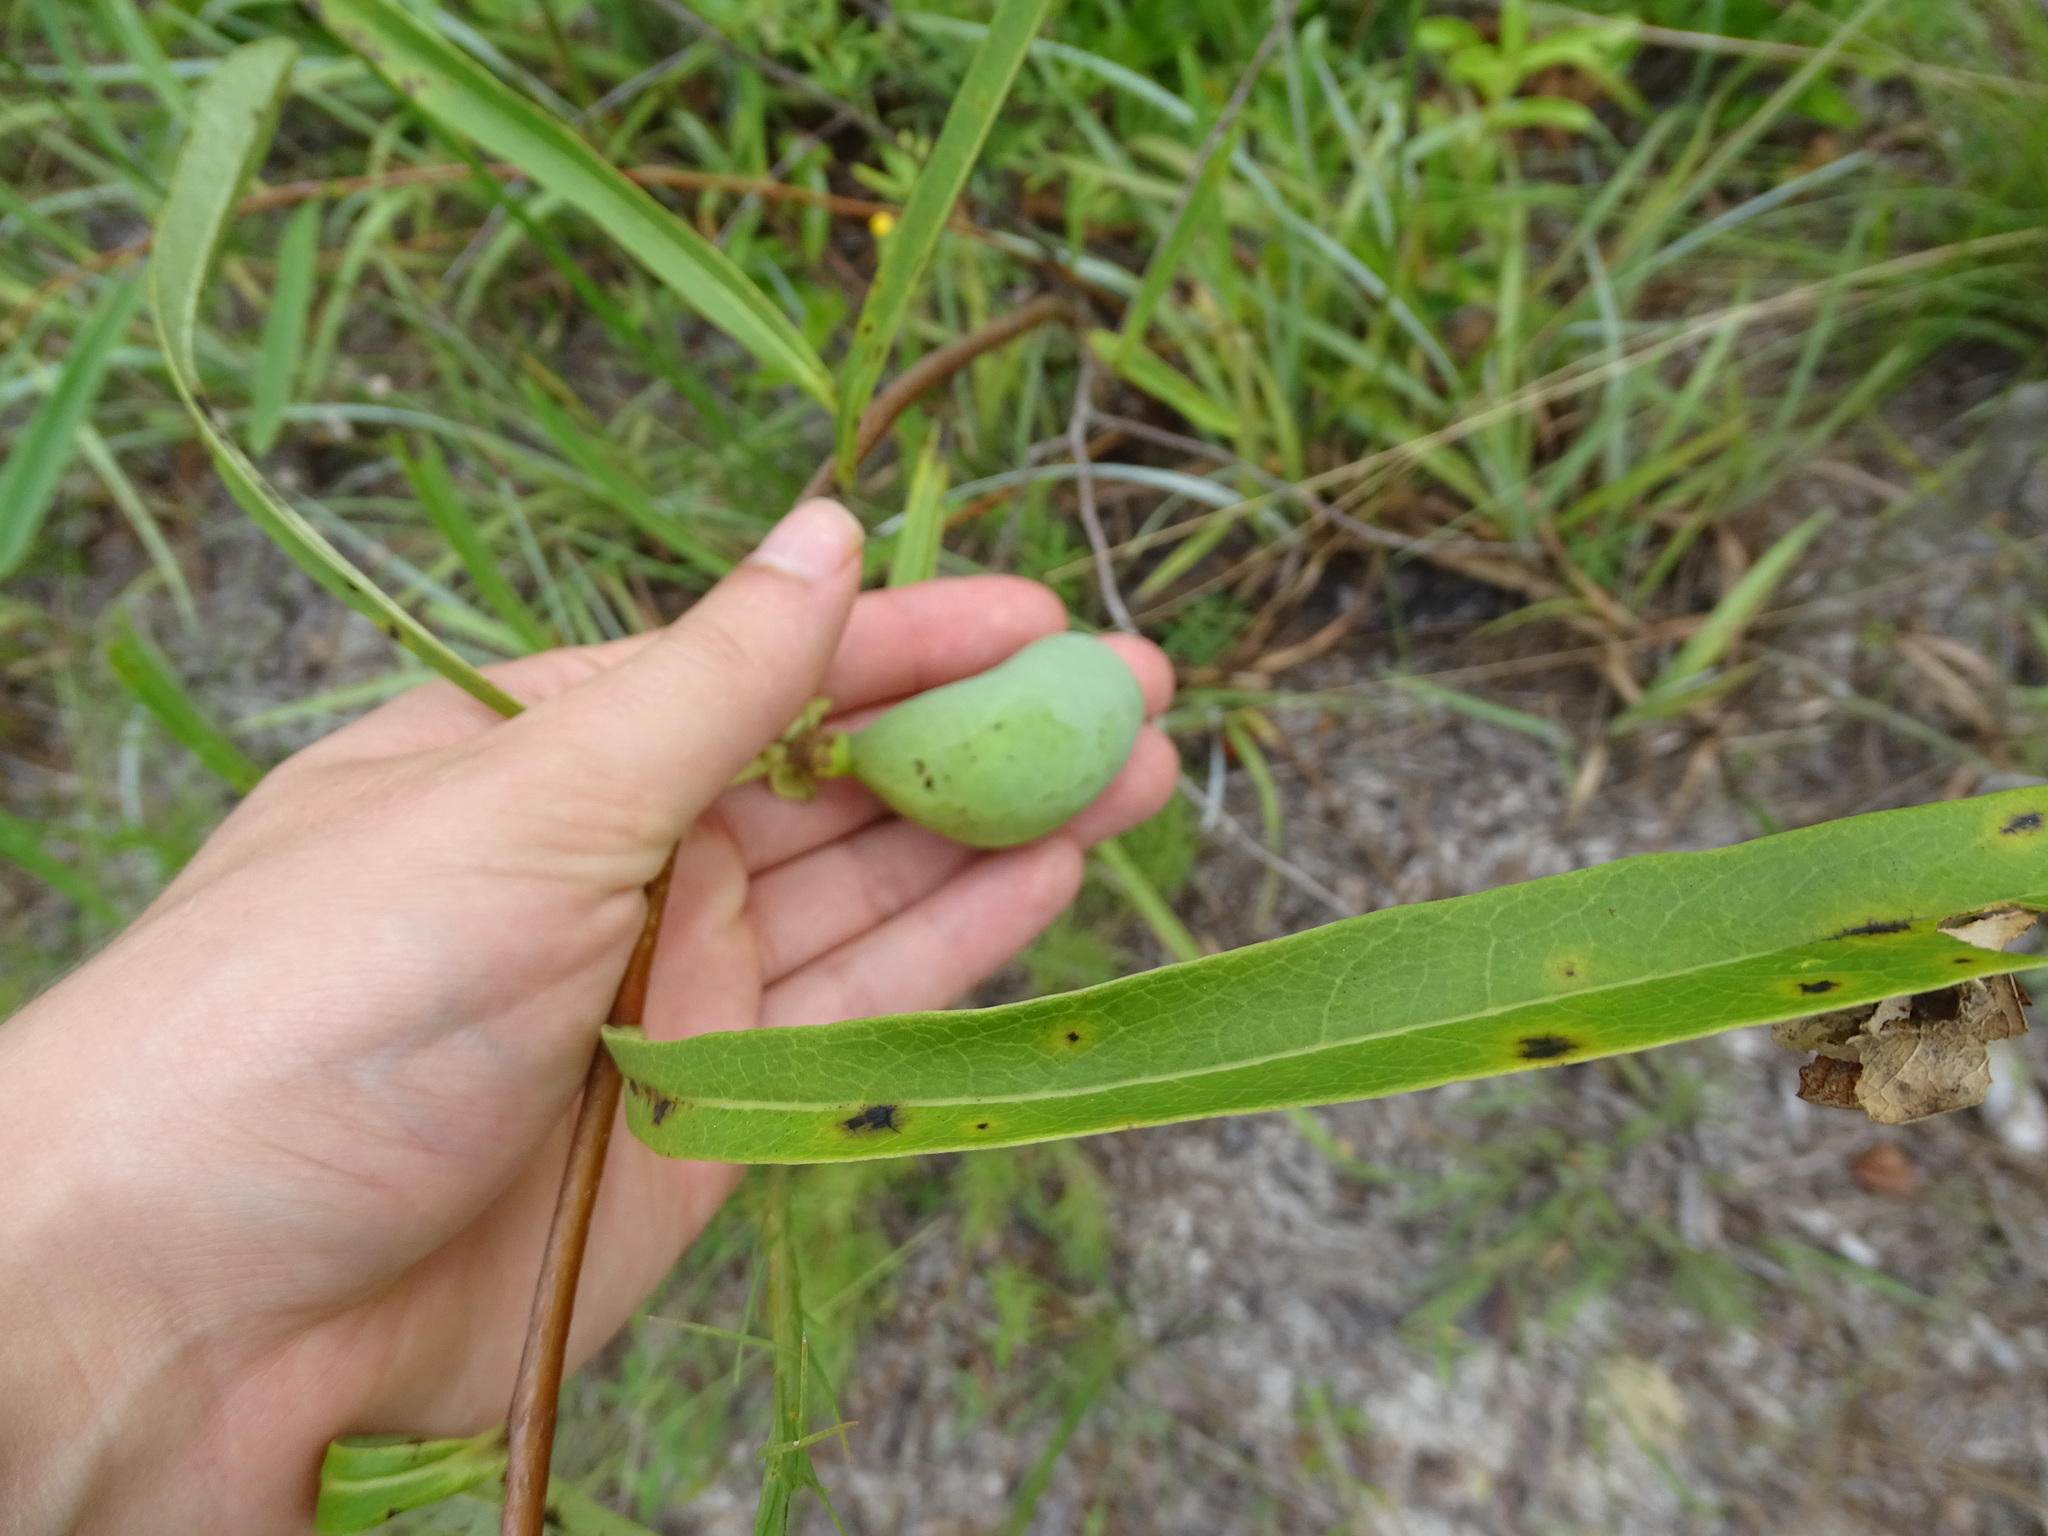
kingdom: Plantae
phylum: Tracheophyta
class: Magnoliopsida
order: Magnoliales
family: Annonaceae
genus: Asimina
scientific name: Asimina longifolia
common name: Polecatbush
